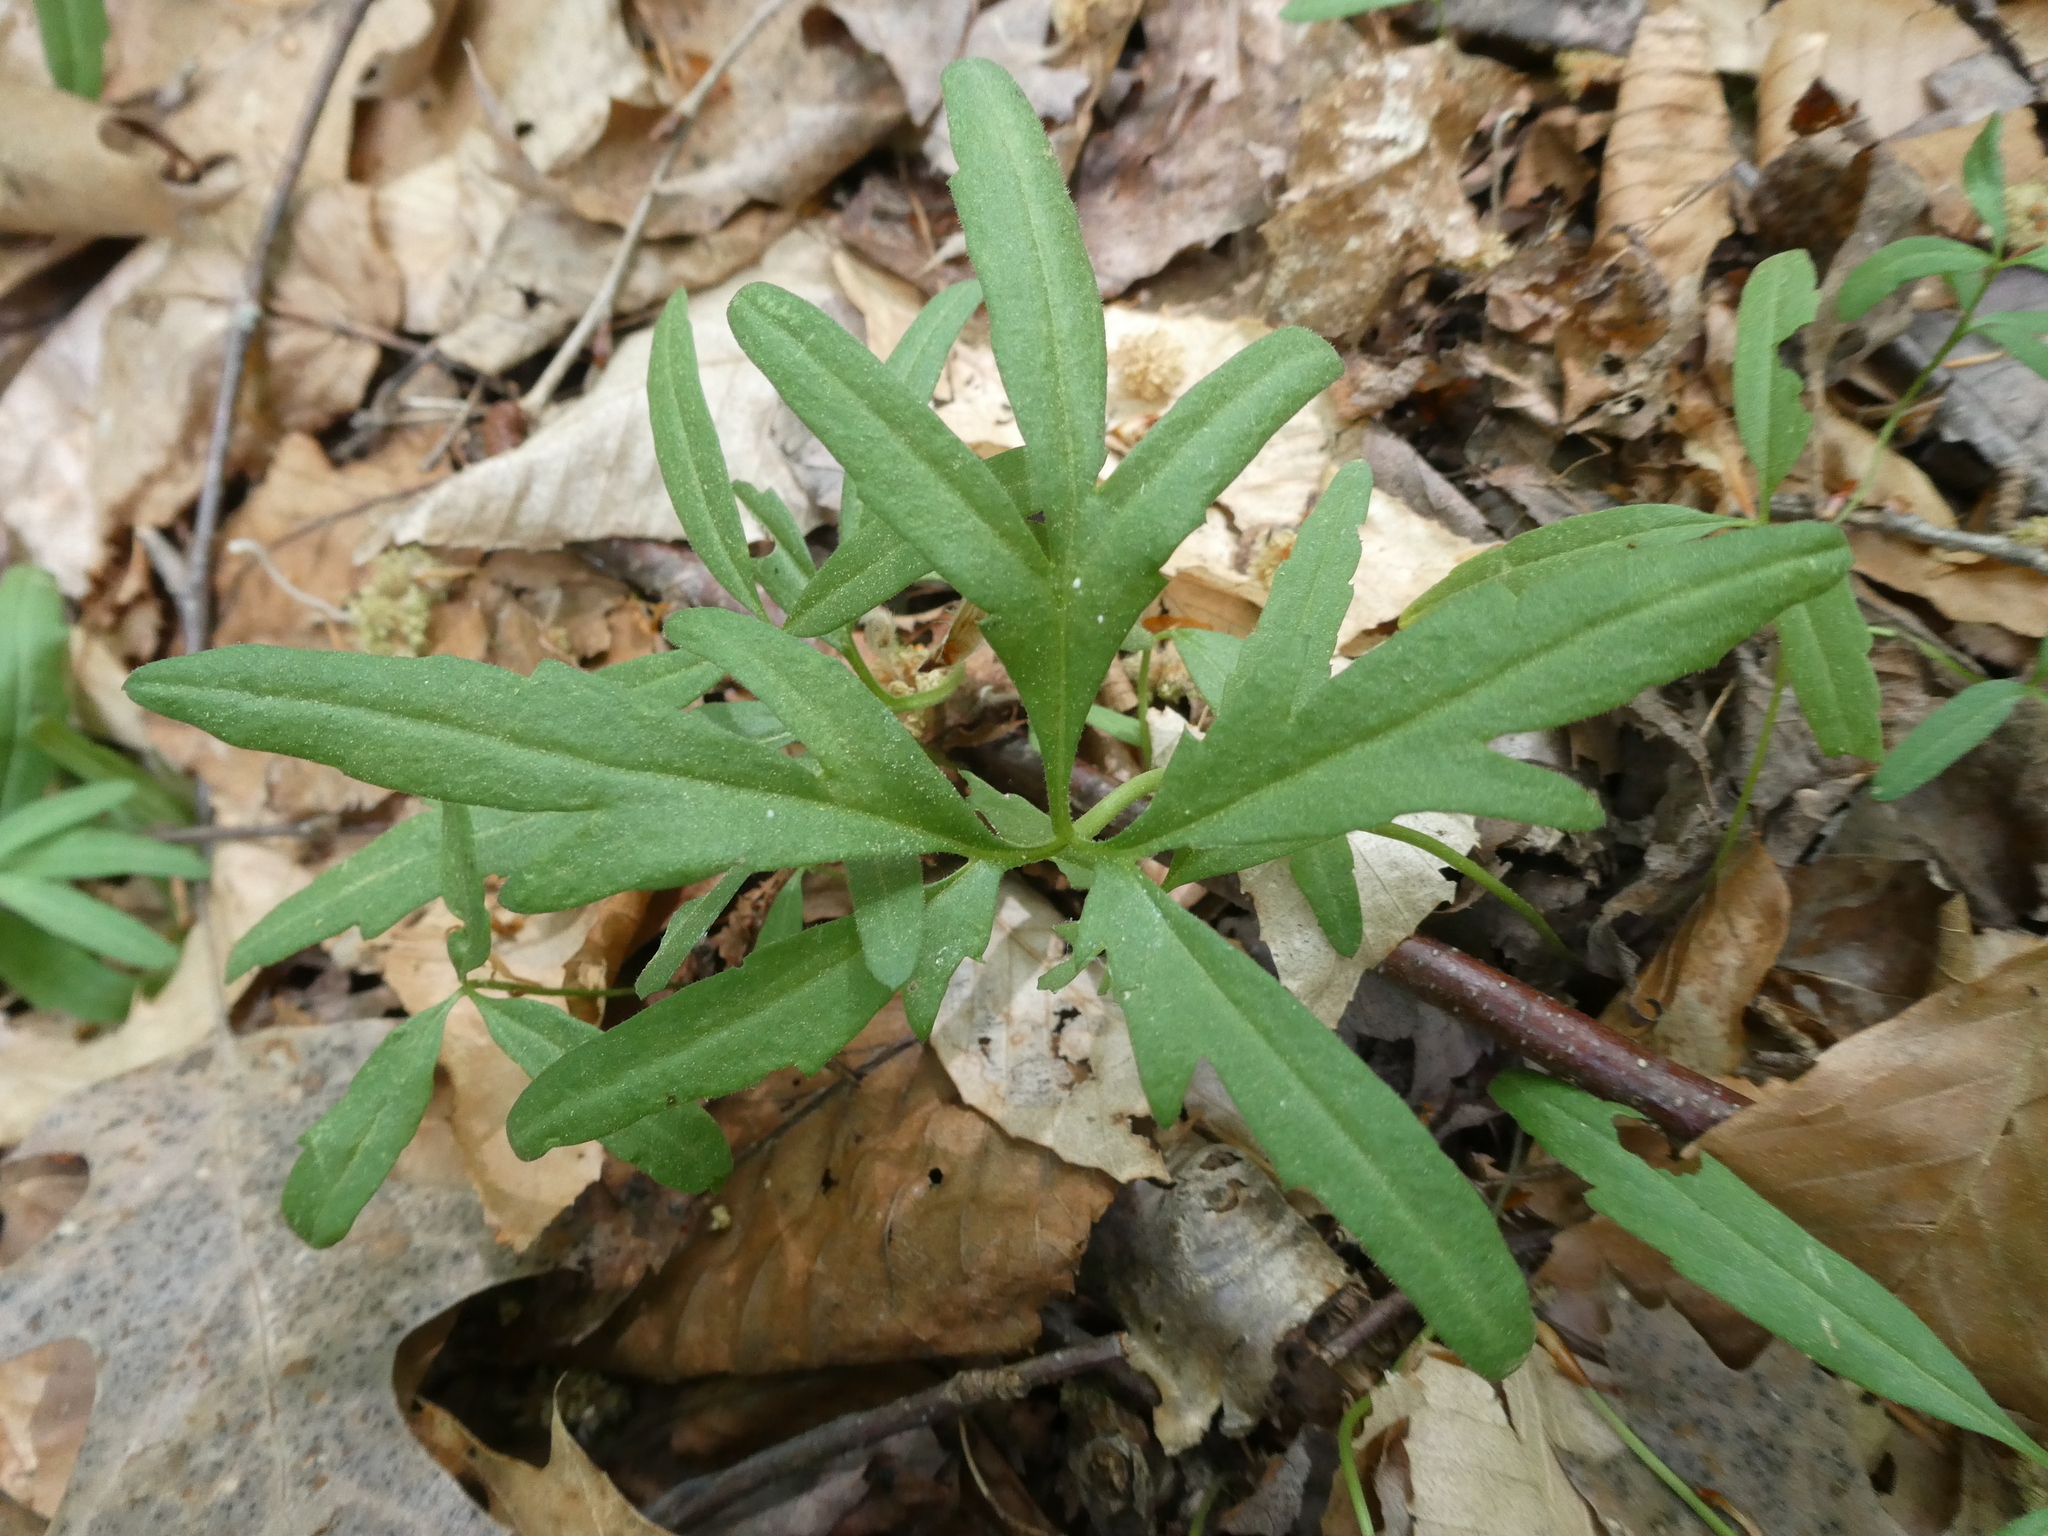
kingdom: Plantae
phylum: Tracheophyta
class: Magnoliopsida
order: Brassicales
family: Brassicaceae
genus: Cardamine
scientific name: Cardamine concatenata
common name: Cut-leaf toothcup
